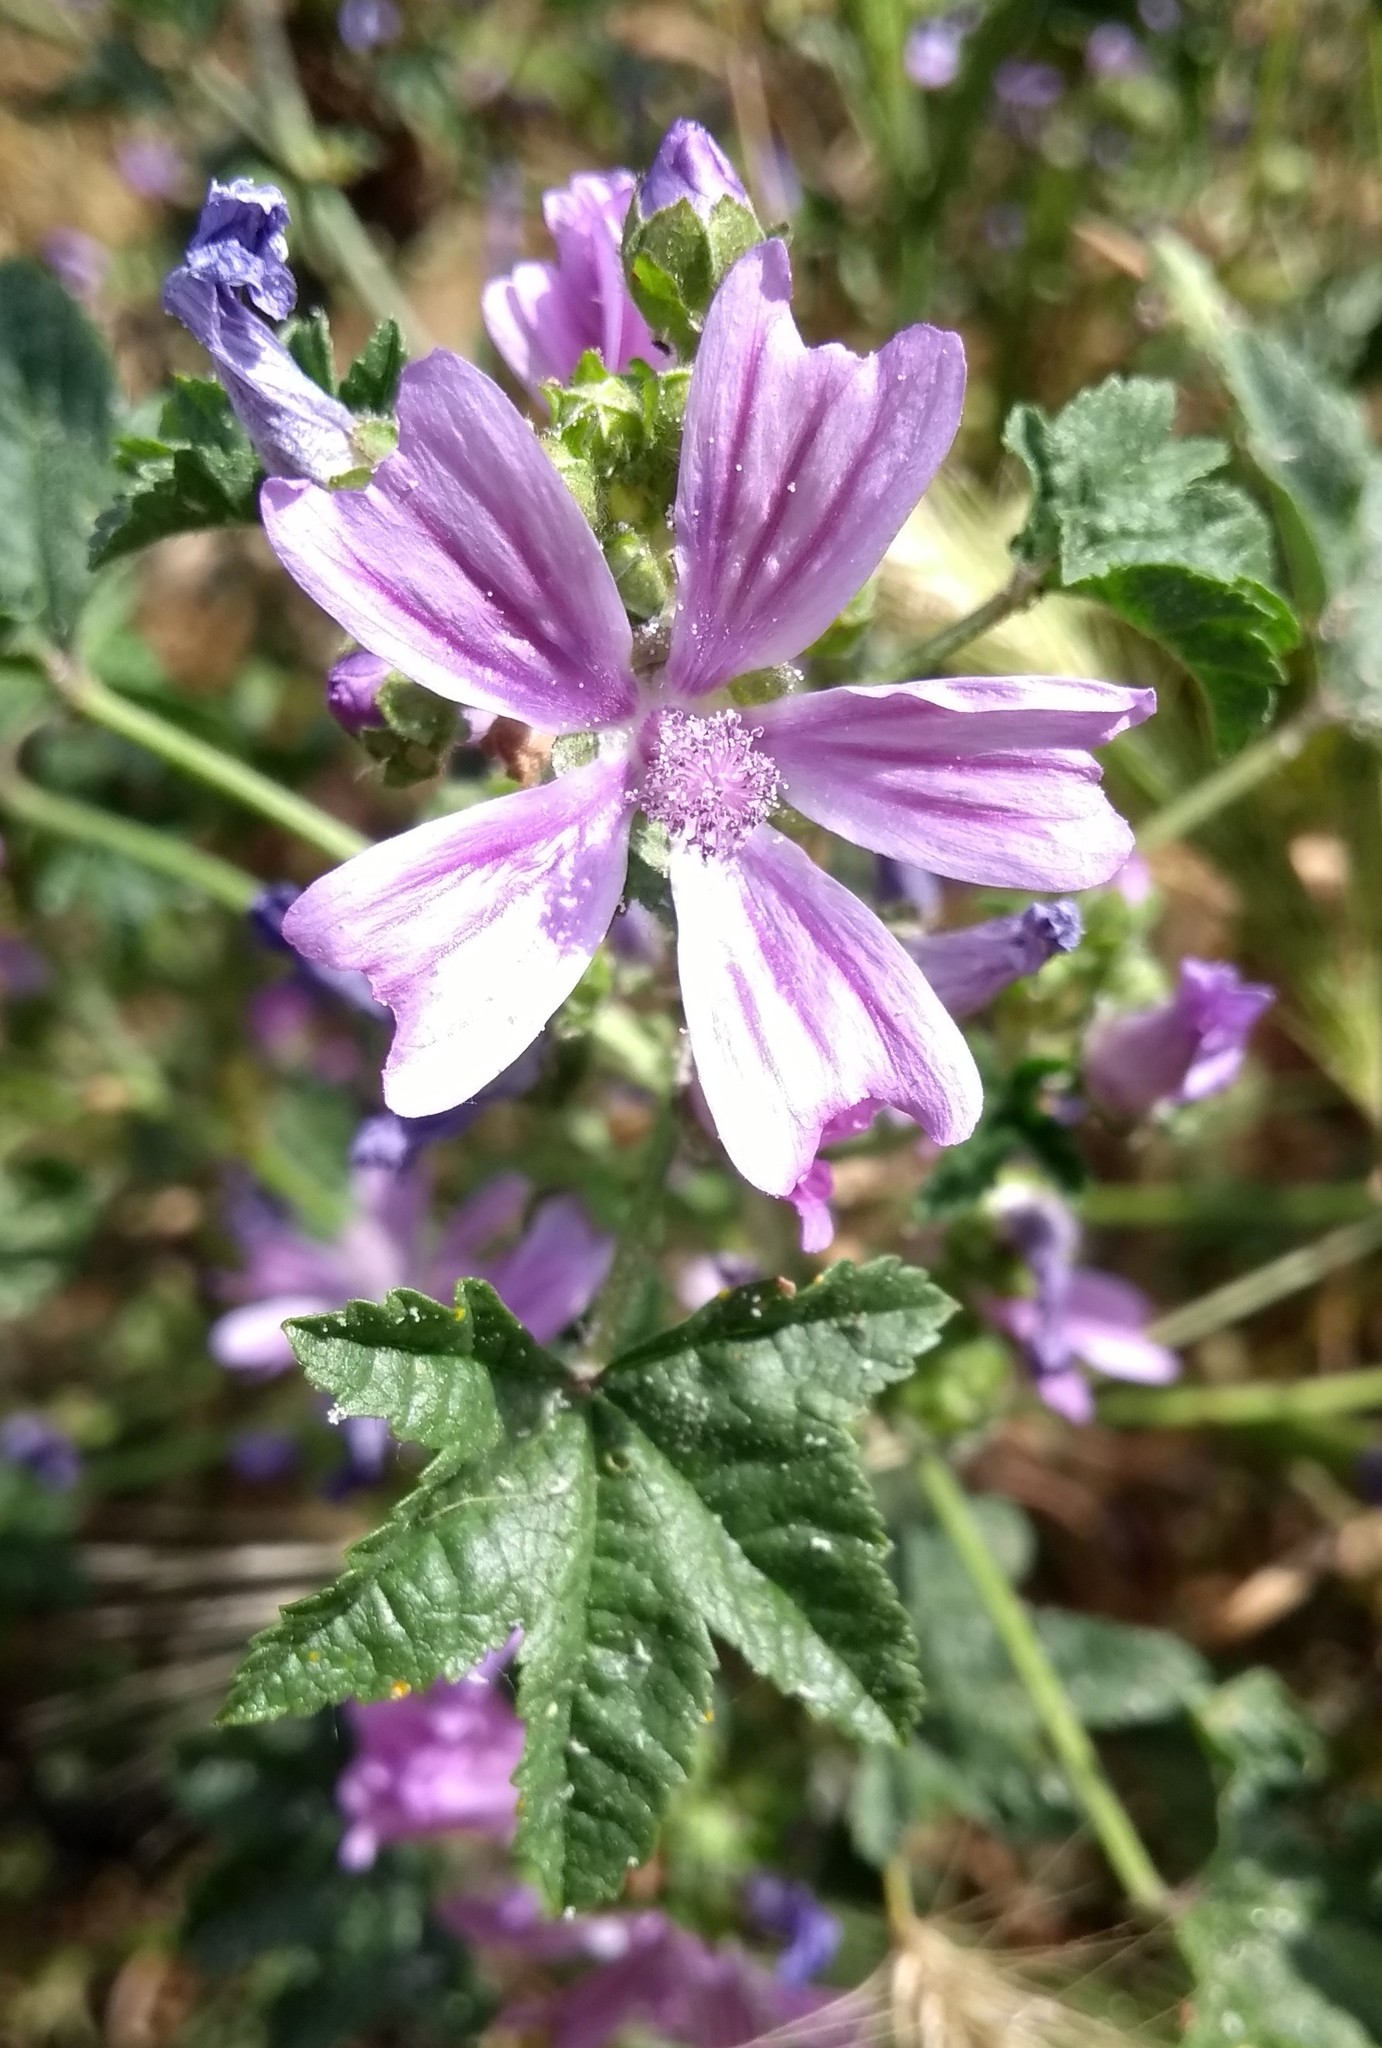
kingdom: Plantae
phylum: Tracheophyta
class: Magnoliopsida
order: Malvales
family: Malvaceae
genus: Malva
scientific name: Malva sylvestris
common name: Common mallow
